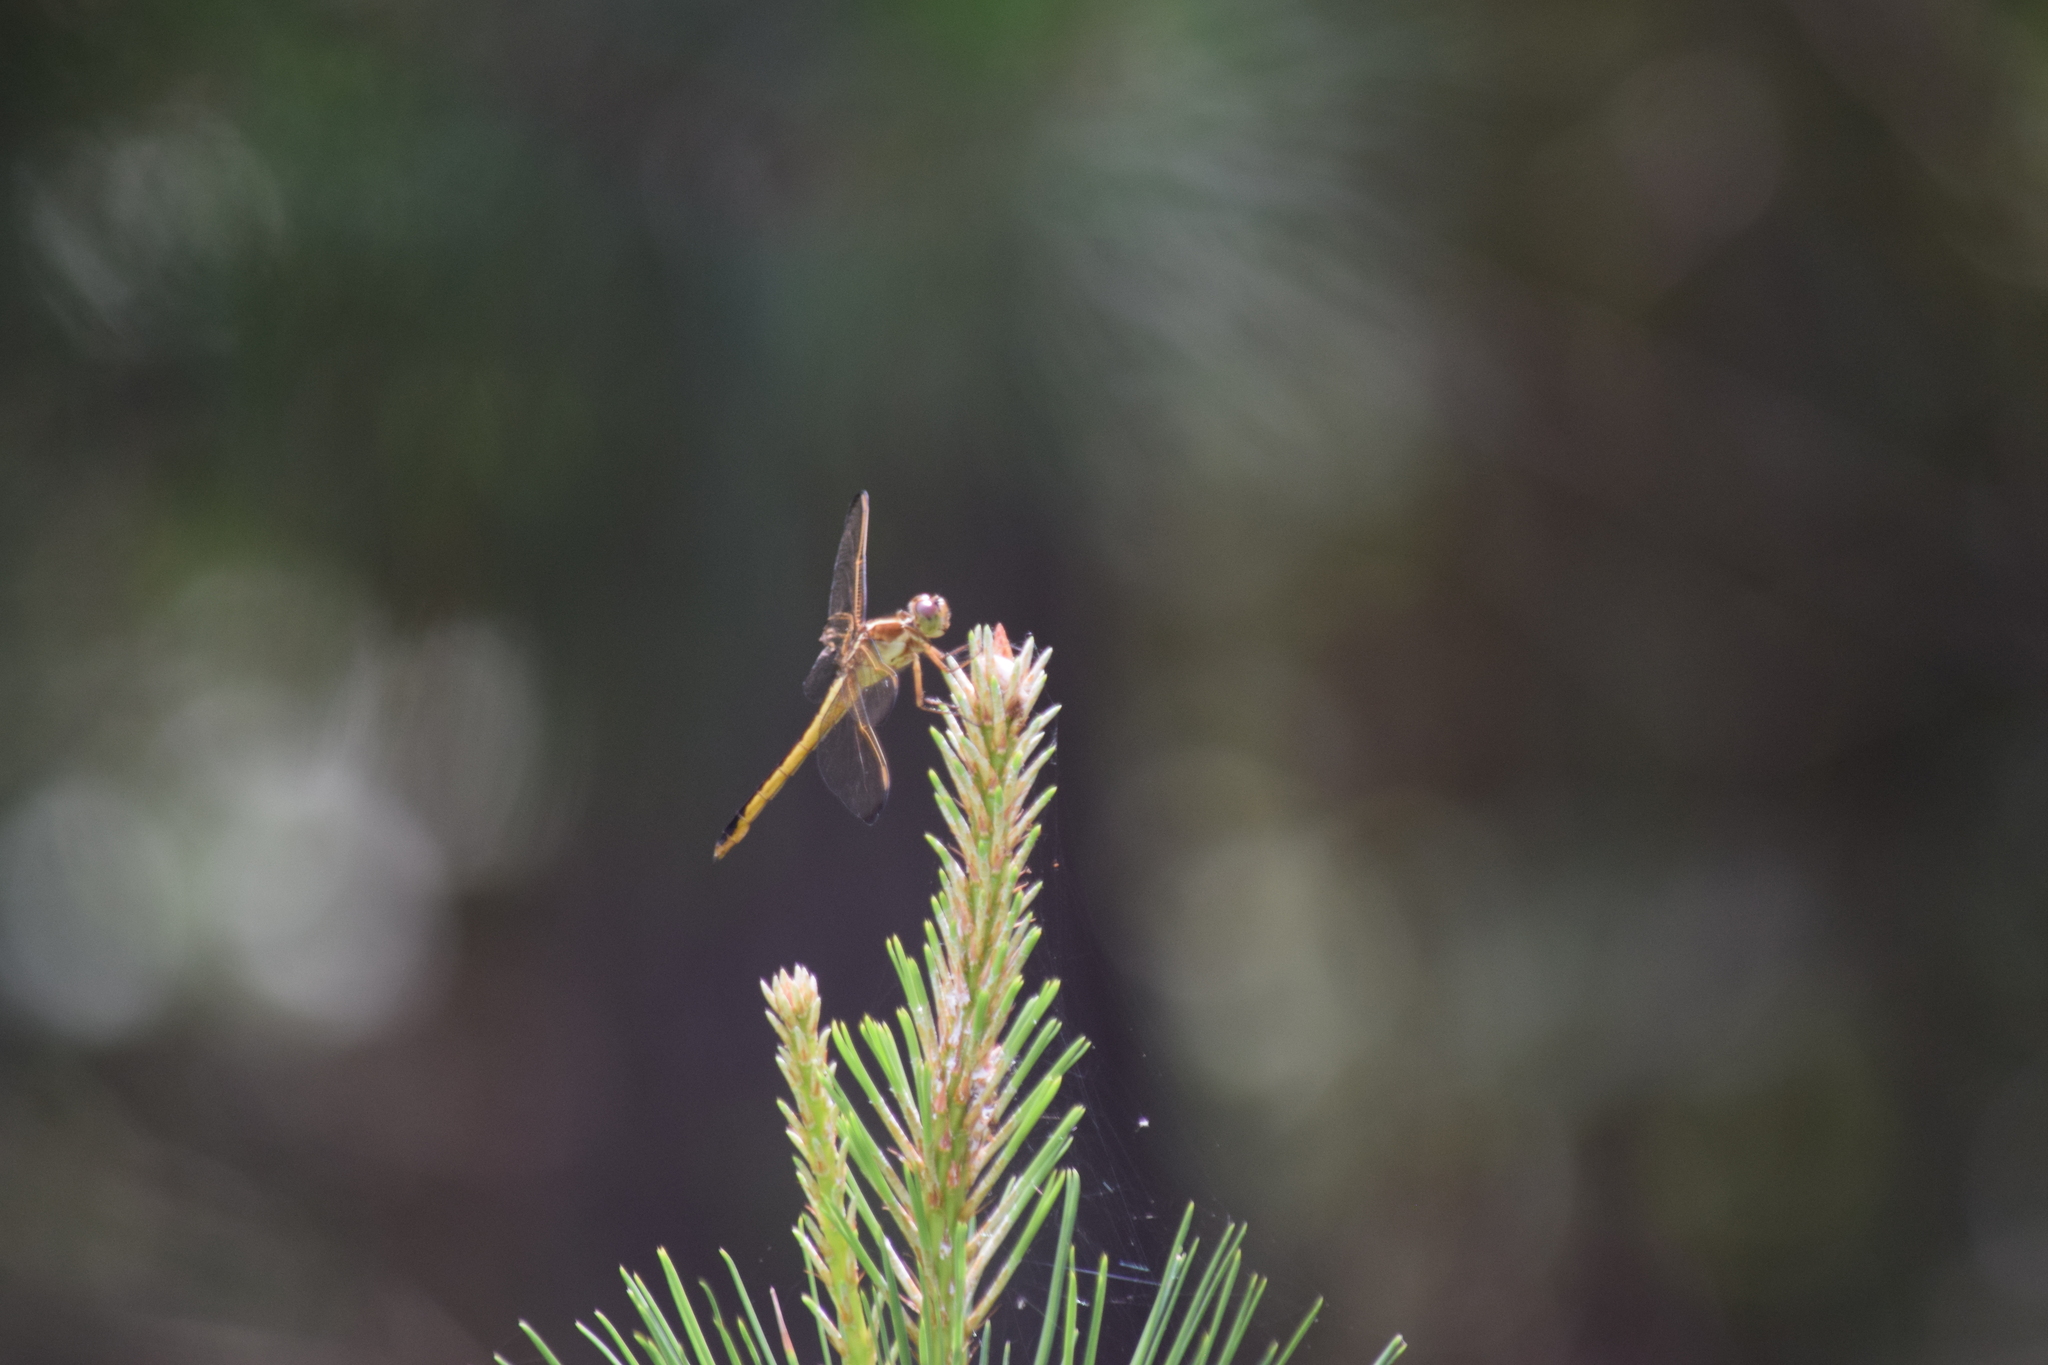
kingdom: Animalia
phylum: Arthropoda
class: Insecta
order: Odonata
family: Libellulidae
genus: Libellula
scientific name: Libellula needhami
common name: Needham's skimmer
